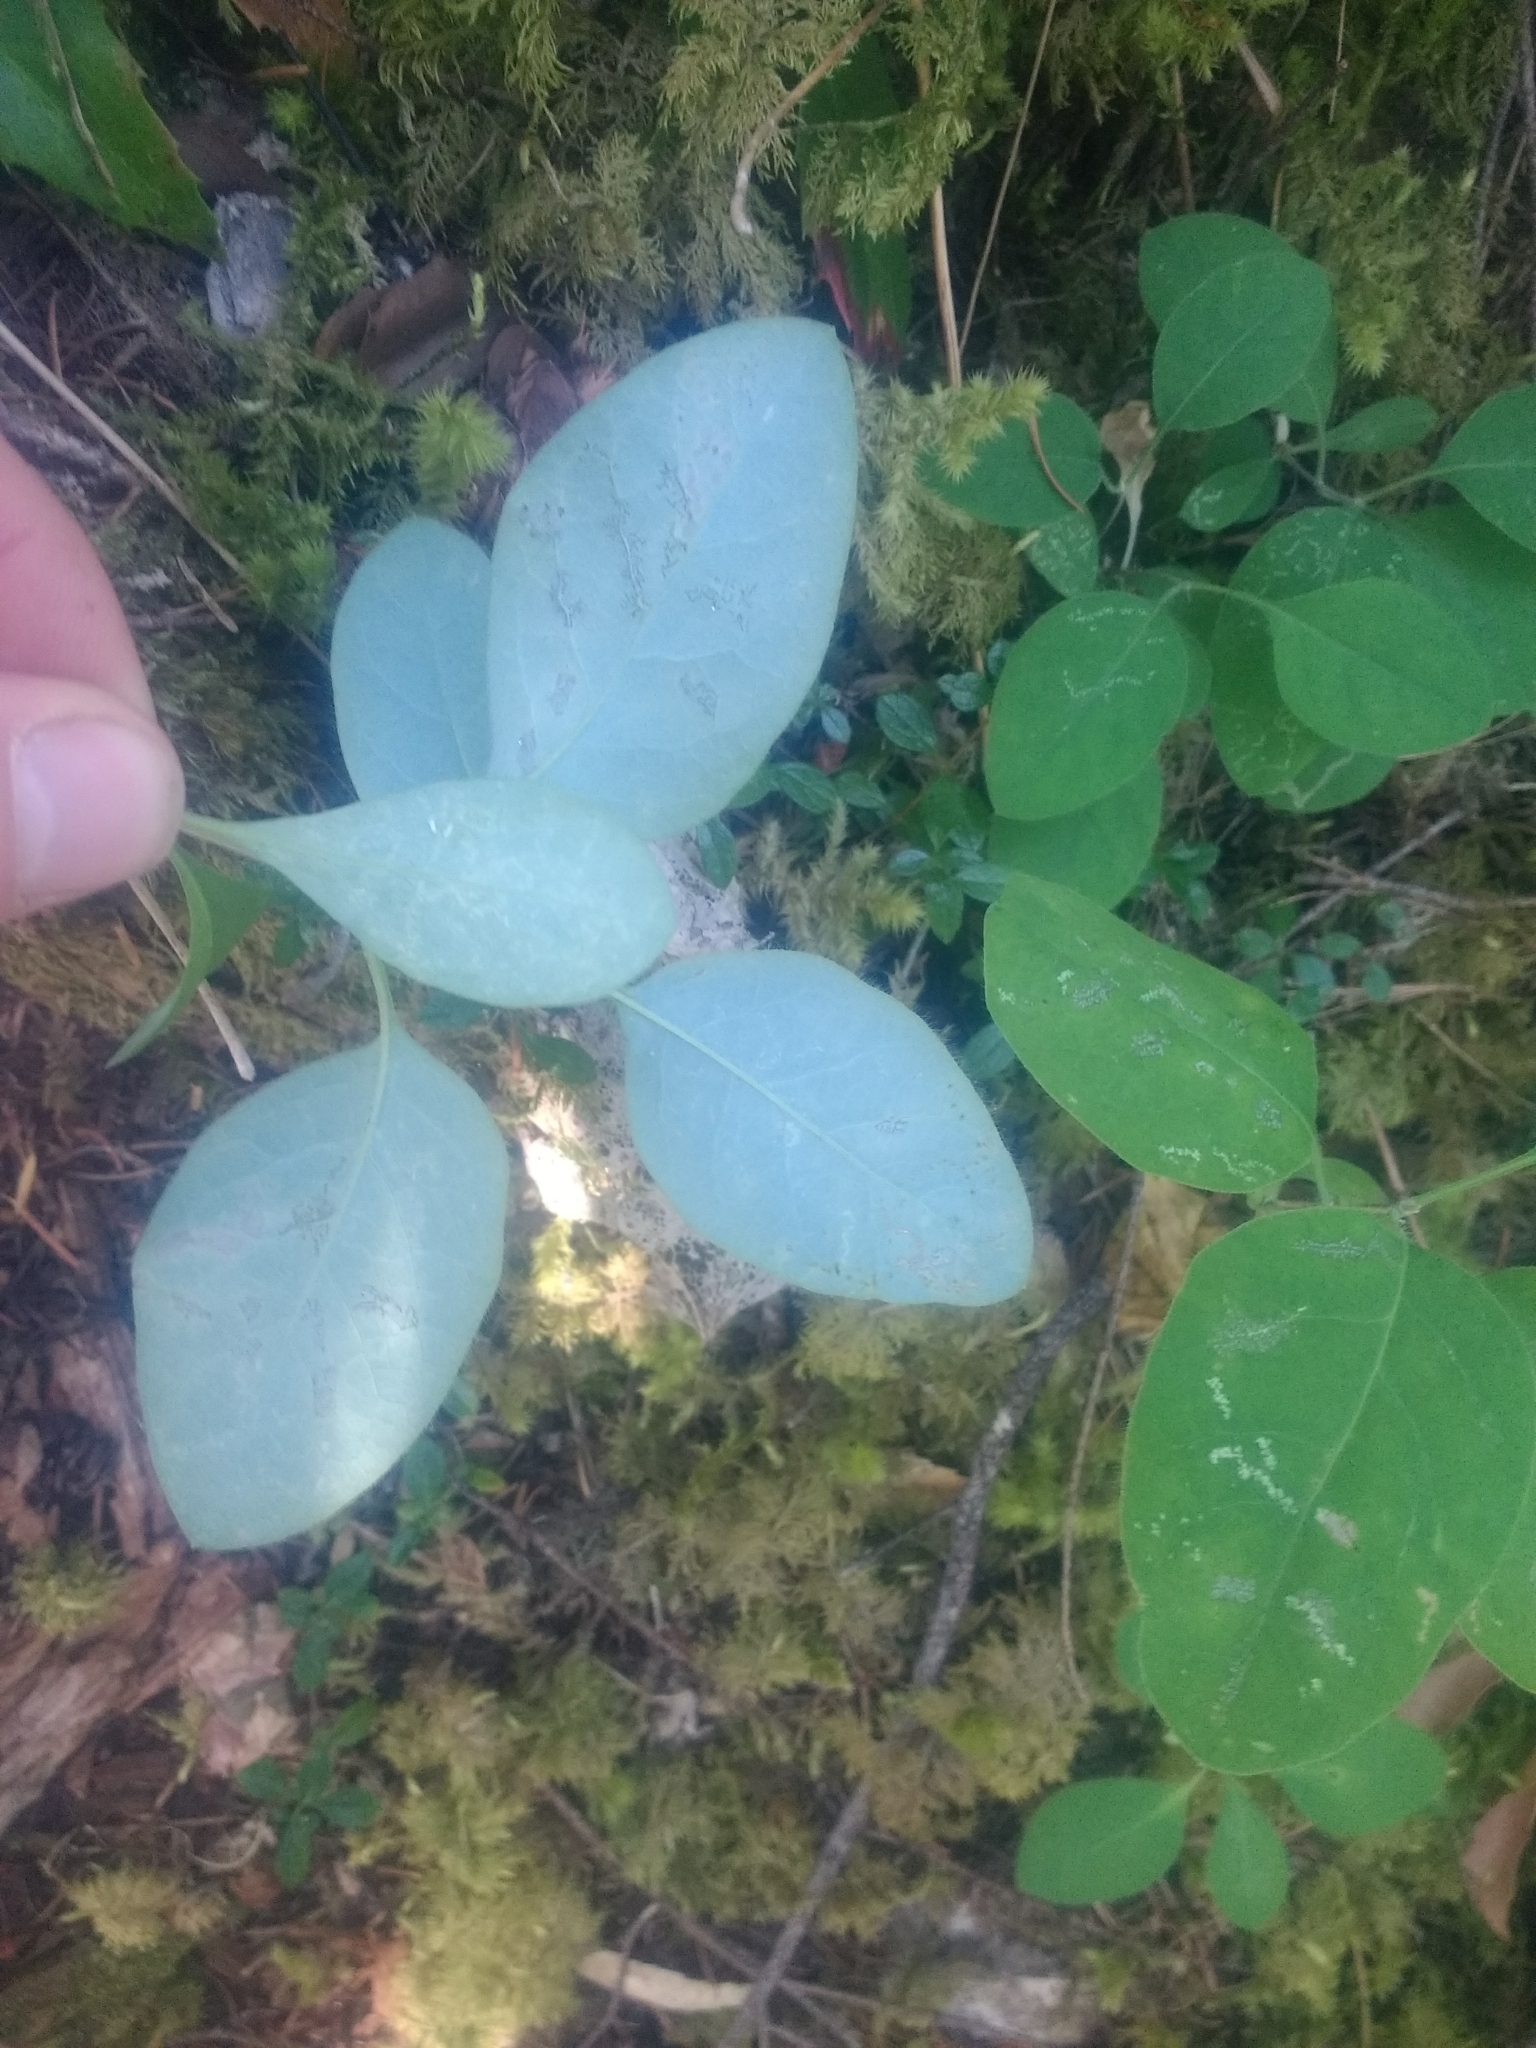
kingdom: Plantae
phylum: Tracheophyta
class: Magnoliopsida
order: Dipsacales
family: Caprifoliaceae
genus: Lonicera
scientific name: Lonicera ciliosa
